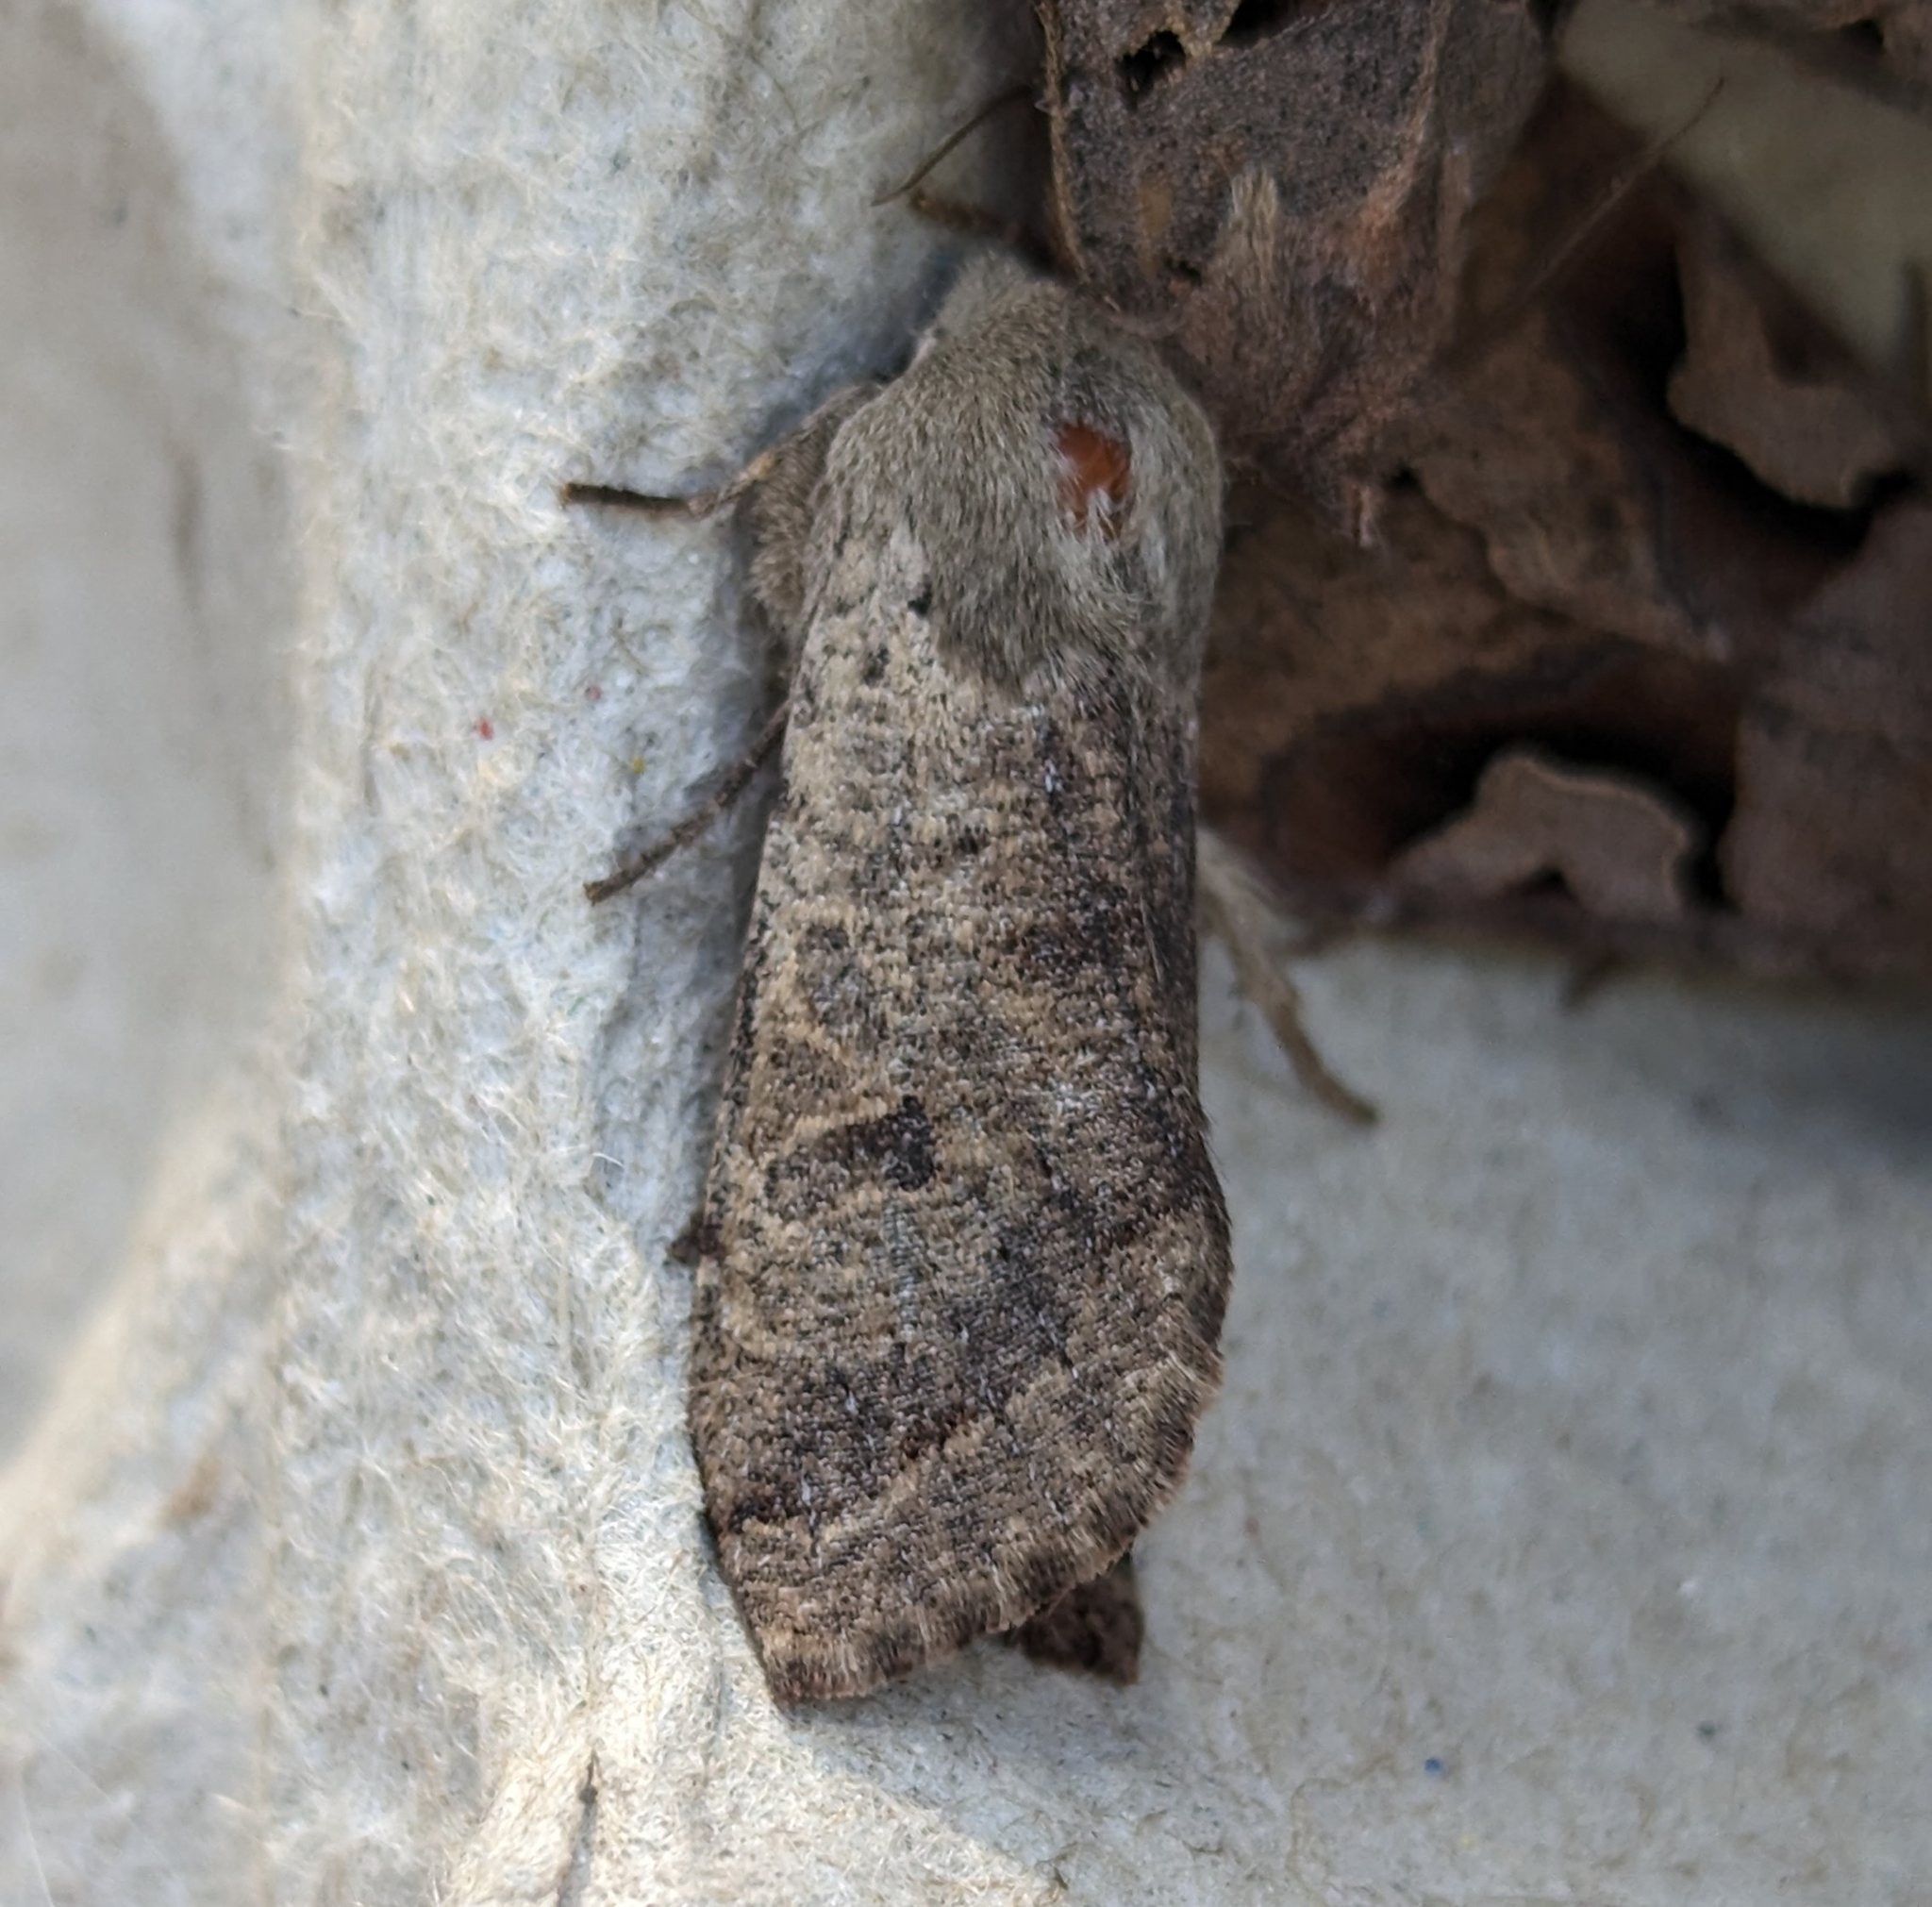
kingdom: Animalia
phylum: Arthropoda
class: Insecta
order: Lepidoptera
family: Noctuidae
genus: Orthosia
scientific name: Orthosia pacifica
